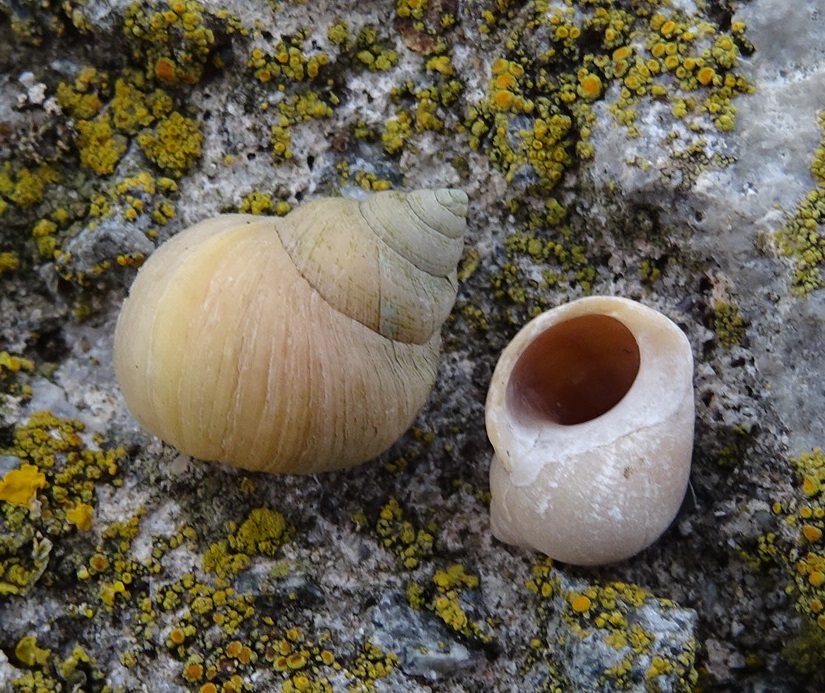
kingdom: Animalia
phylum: Mollusca
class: Gastropoda
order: Littorinimorpha
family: Littorinidae
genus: Littorina
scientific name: Littorina saxatilis
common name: Black-lined periwinkle
